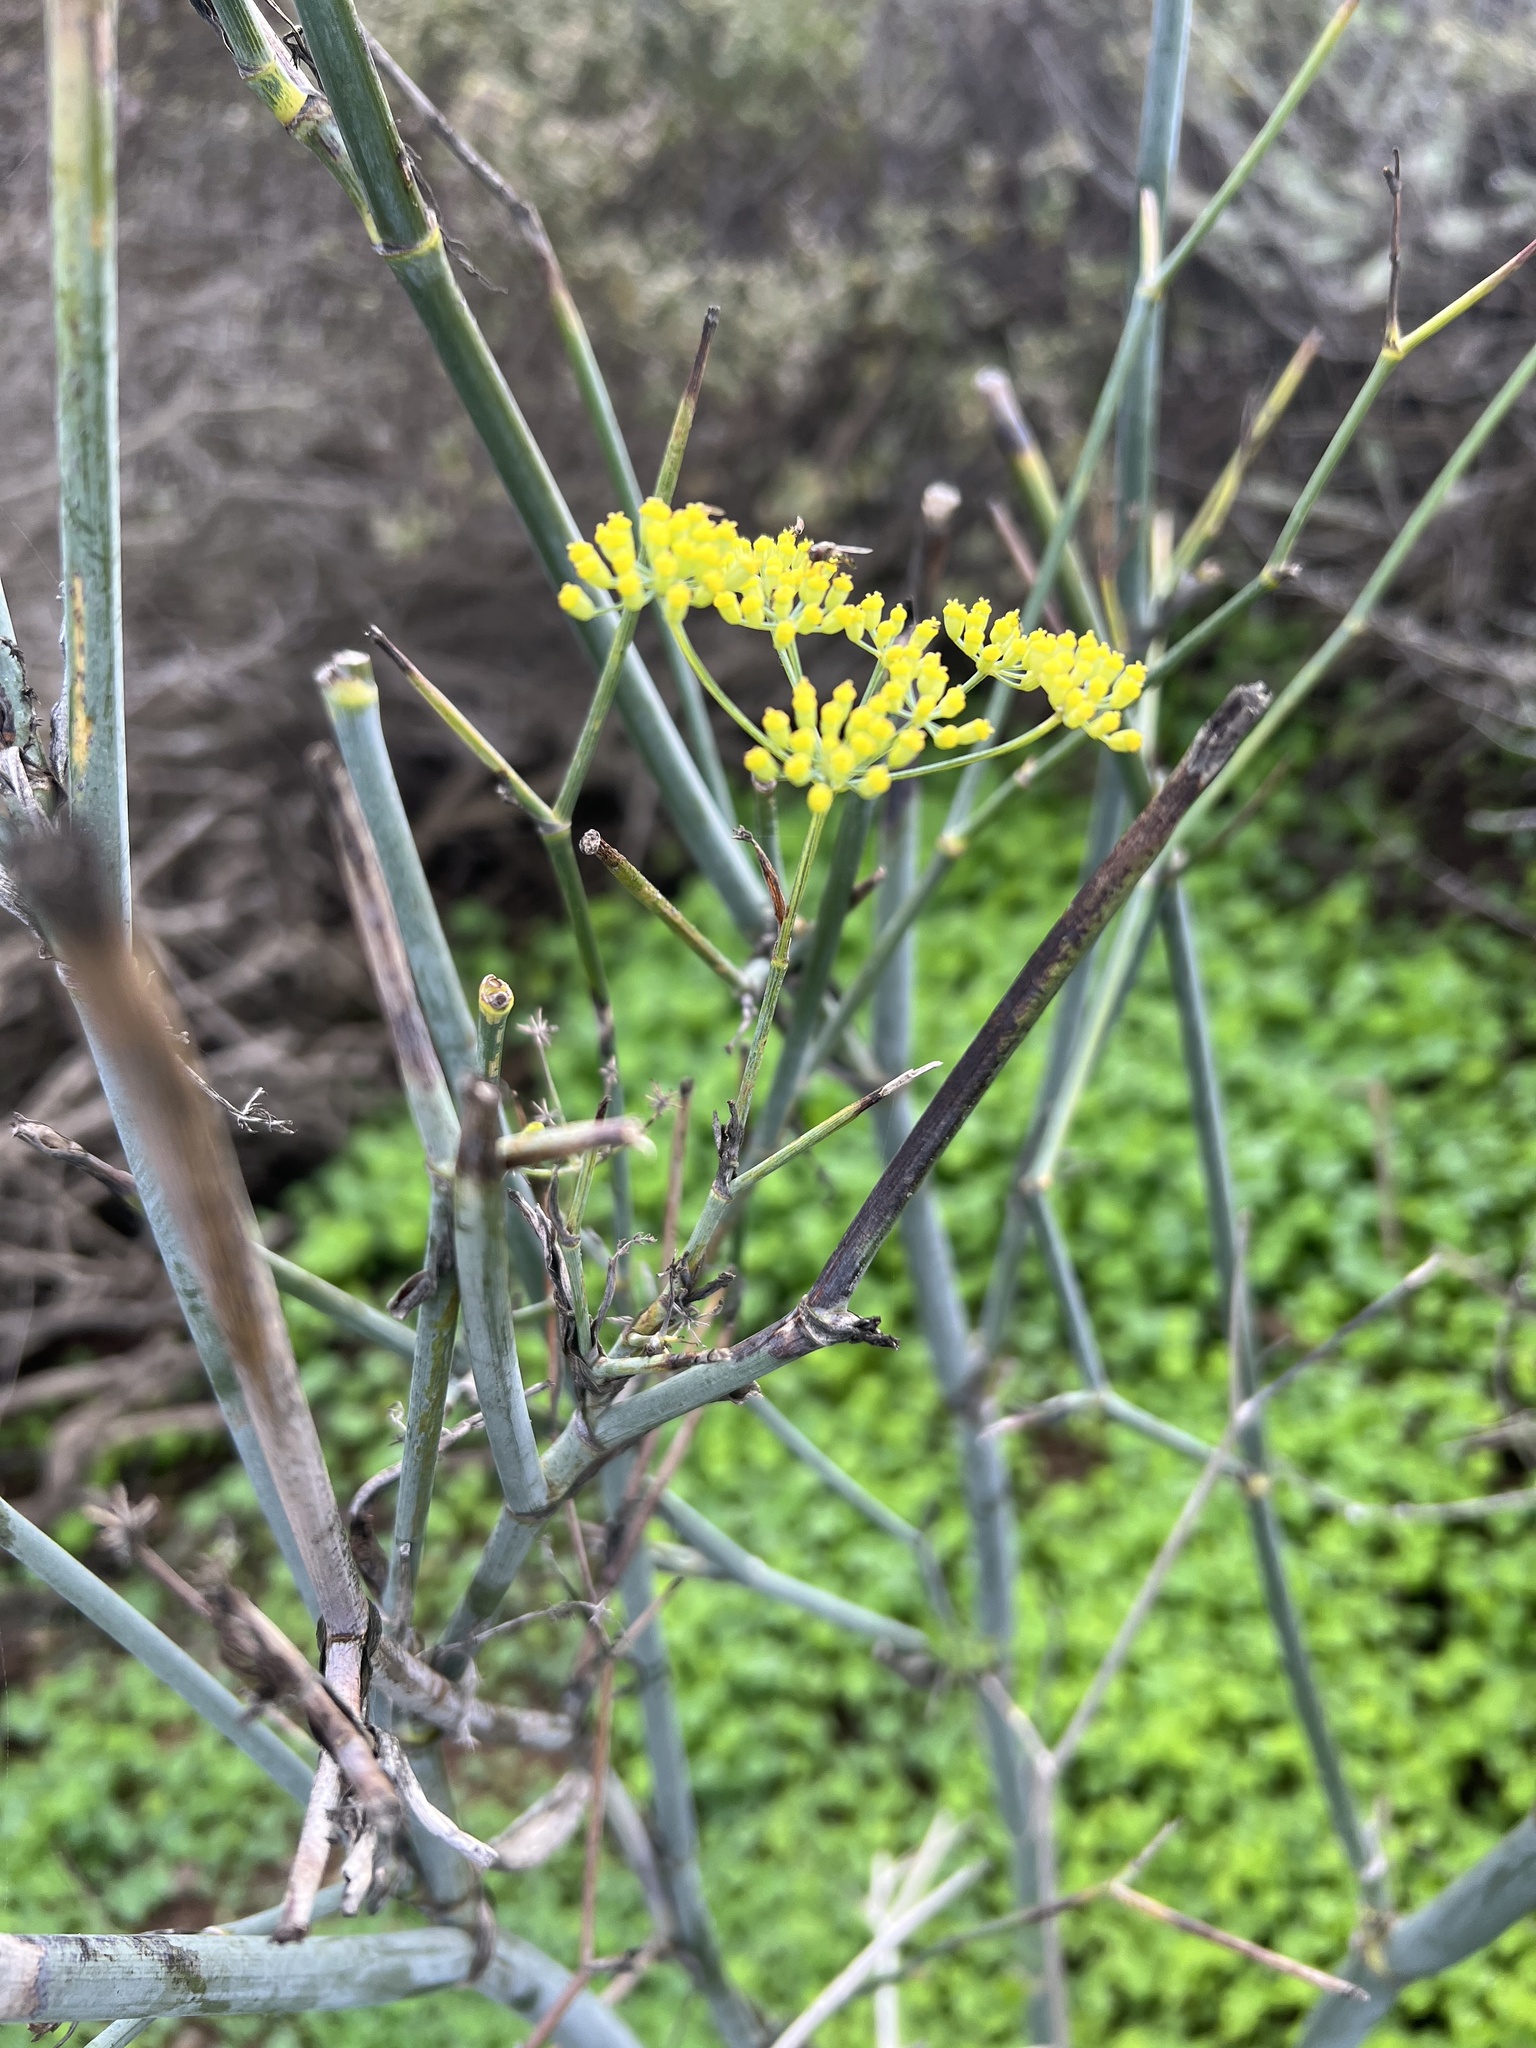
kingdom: Plantae
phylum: Tracheophyta
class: Magnoliopsida
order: Apiales
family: Apiaceae
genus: Foeniculum
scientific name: Foeniculum vulgare
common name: Fennel
